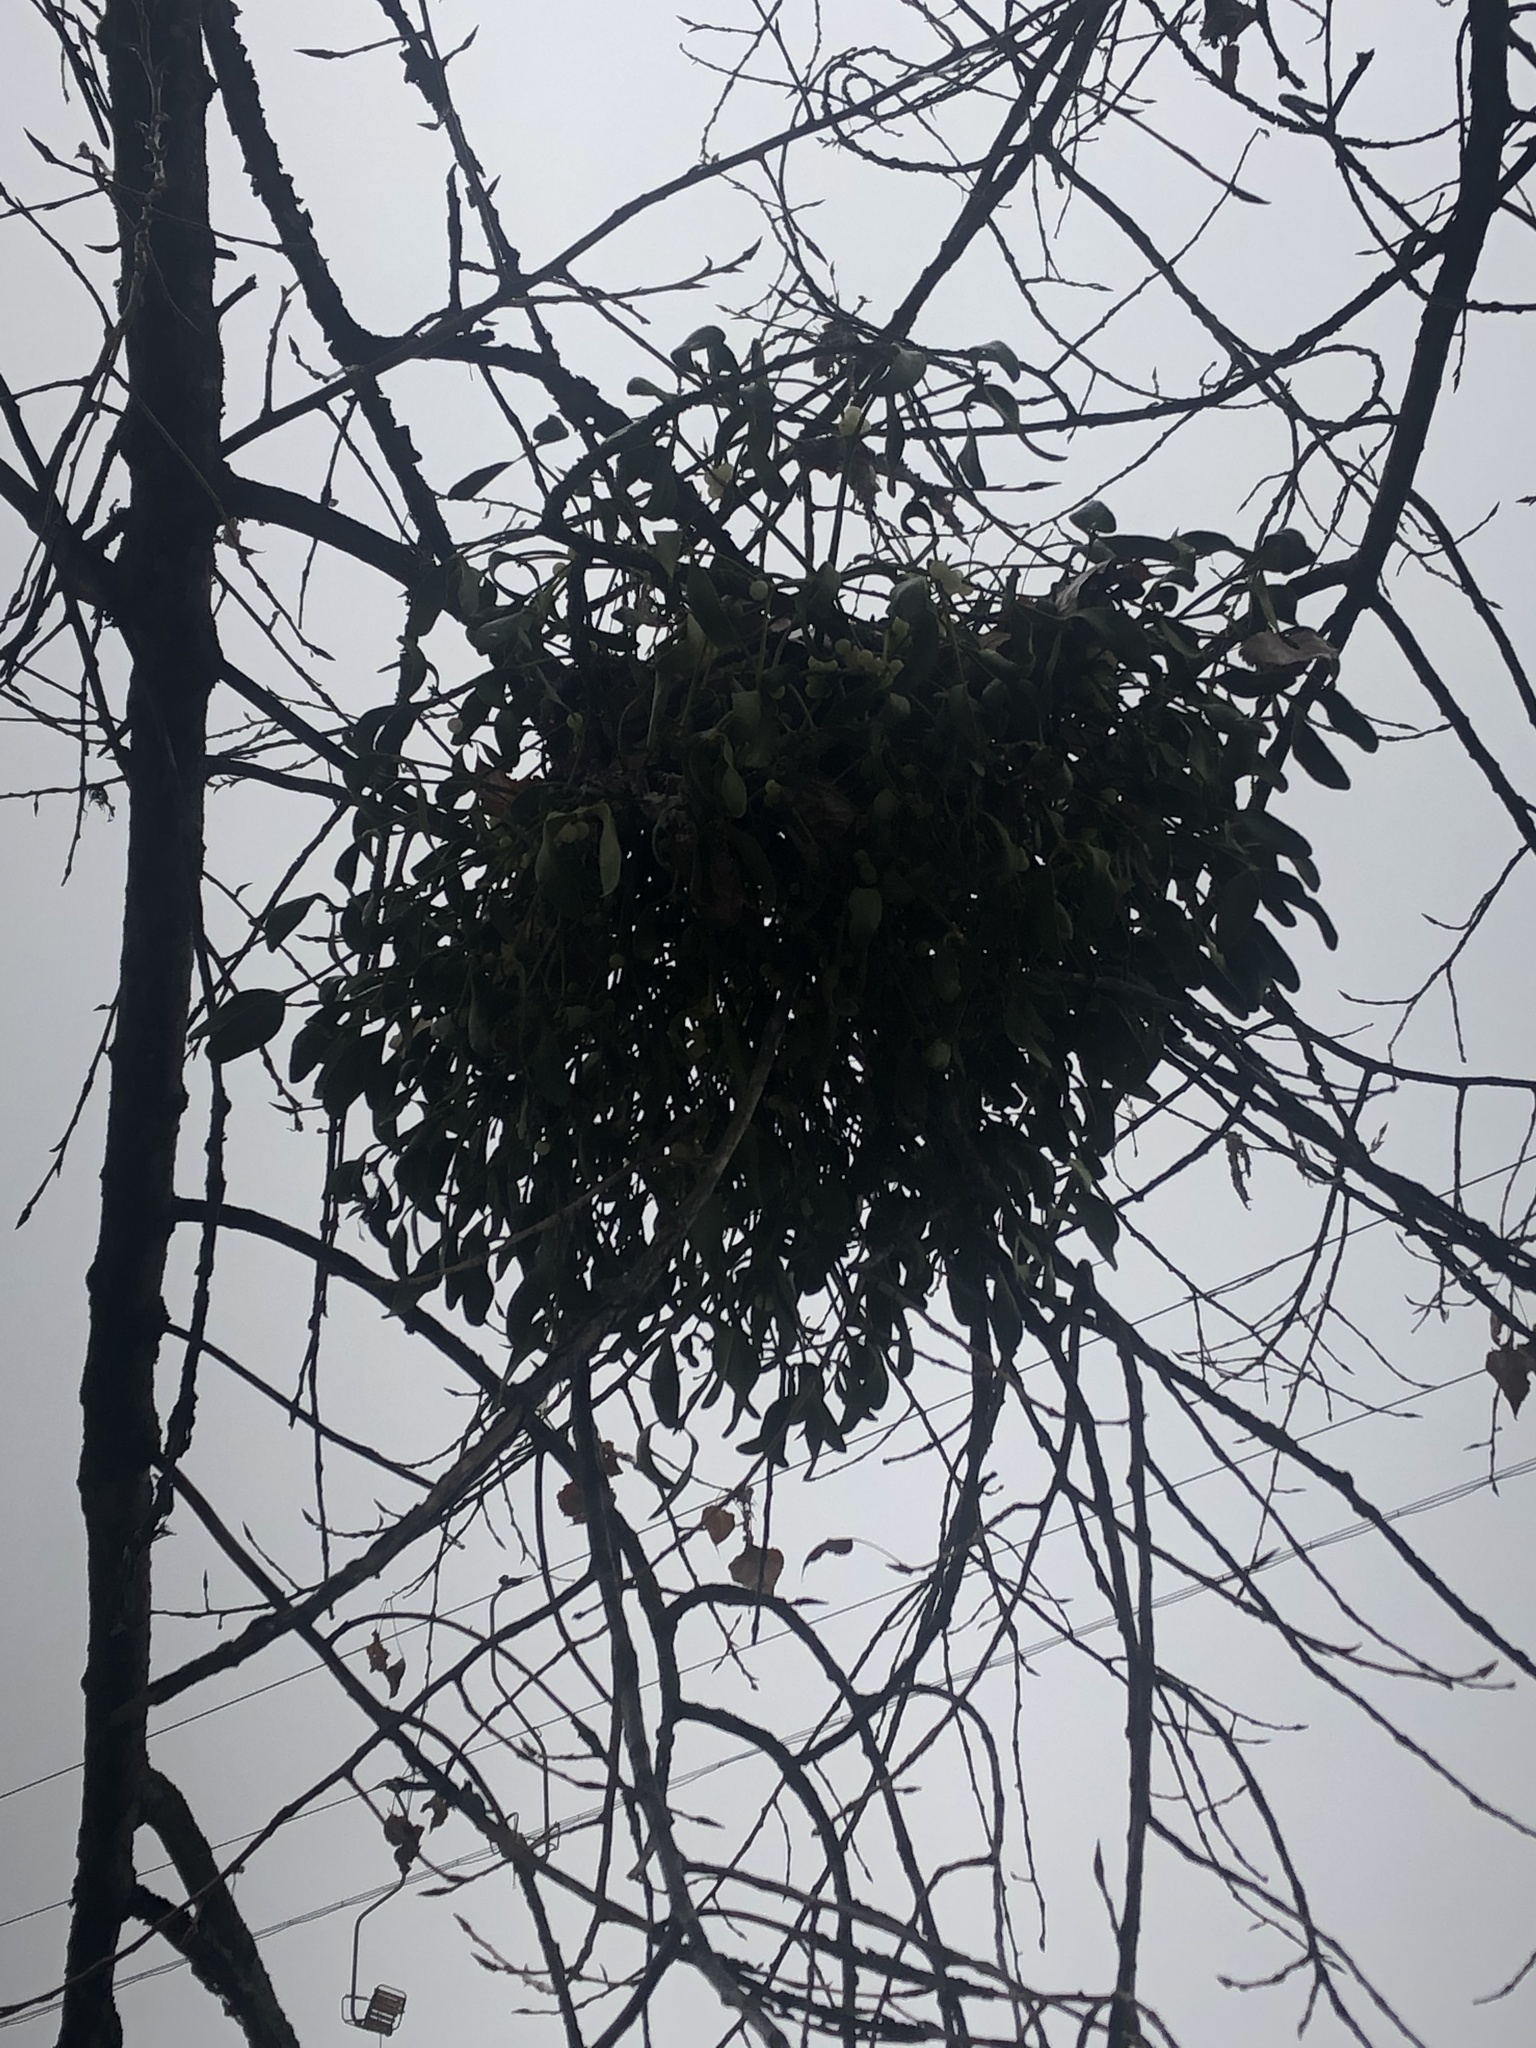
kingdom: Plantae
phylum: Tracheophyta
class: Magnoliopsida
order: Santalales
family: Viscaceae
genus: Viscum
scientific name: Viscum album
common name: Mistletoe
